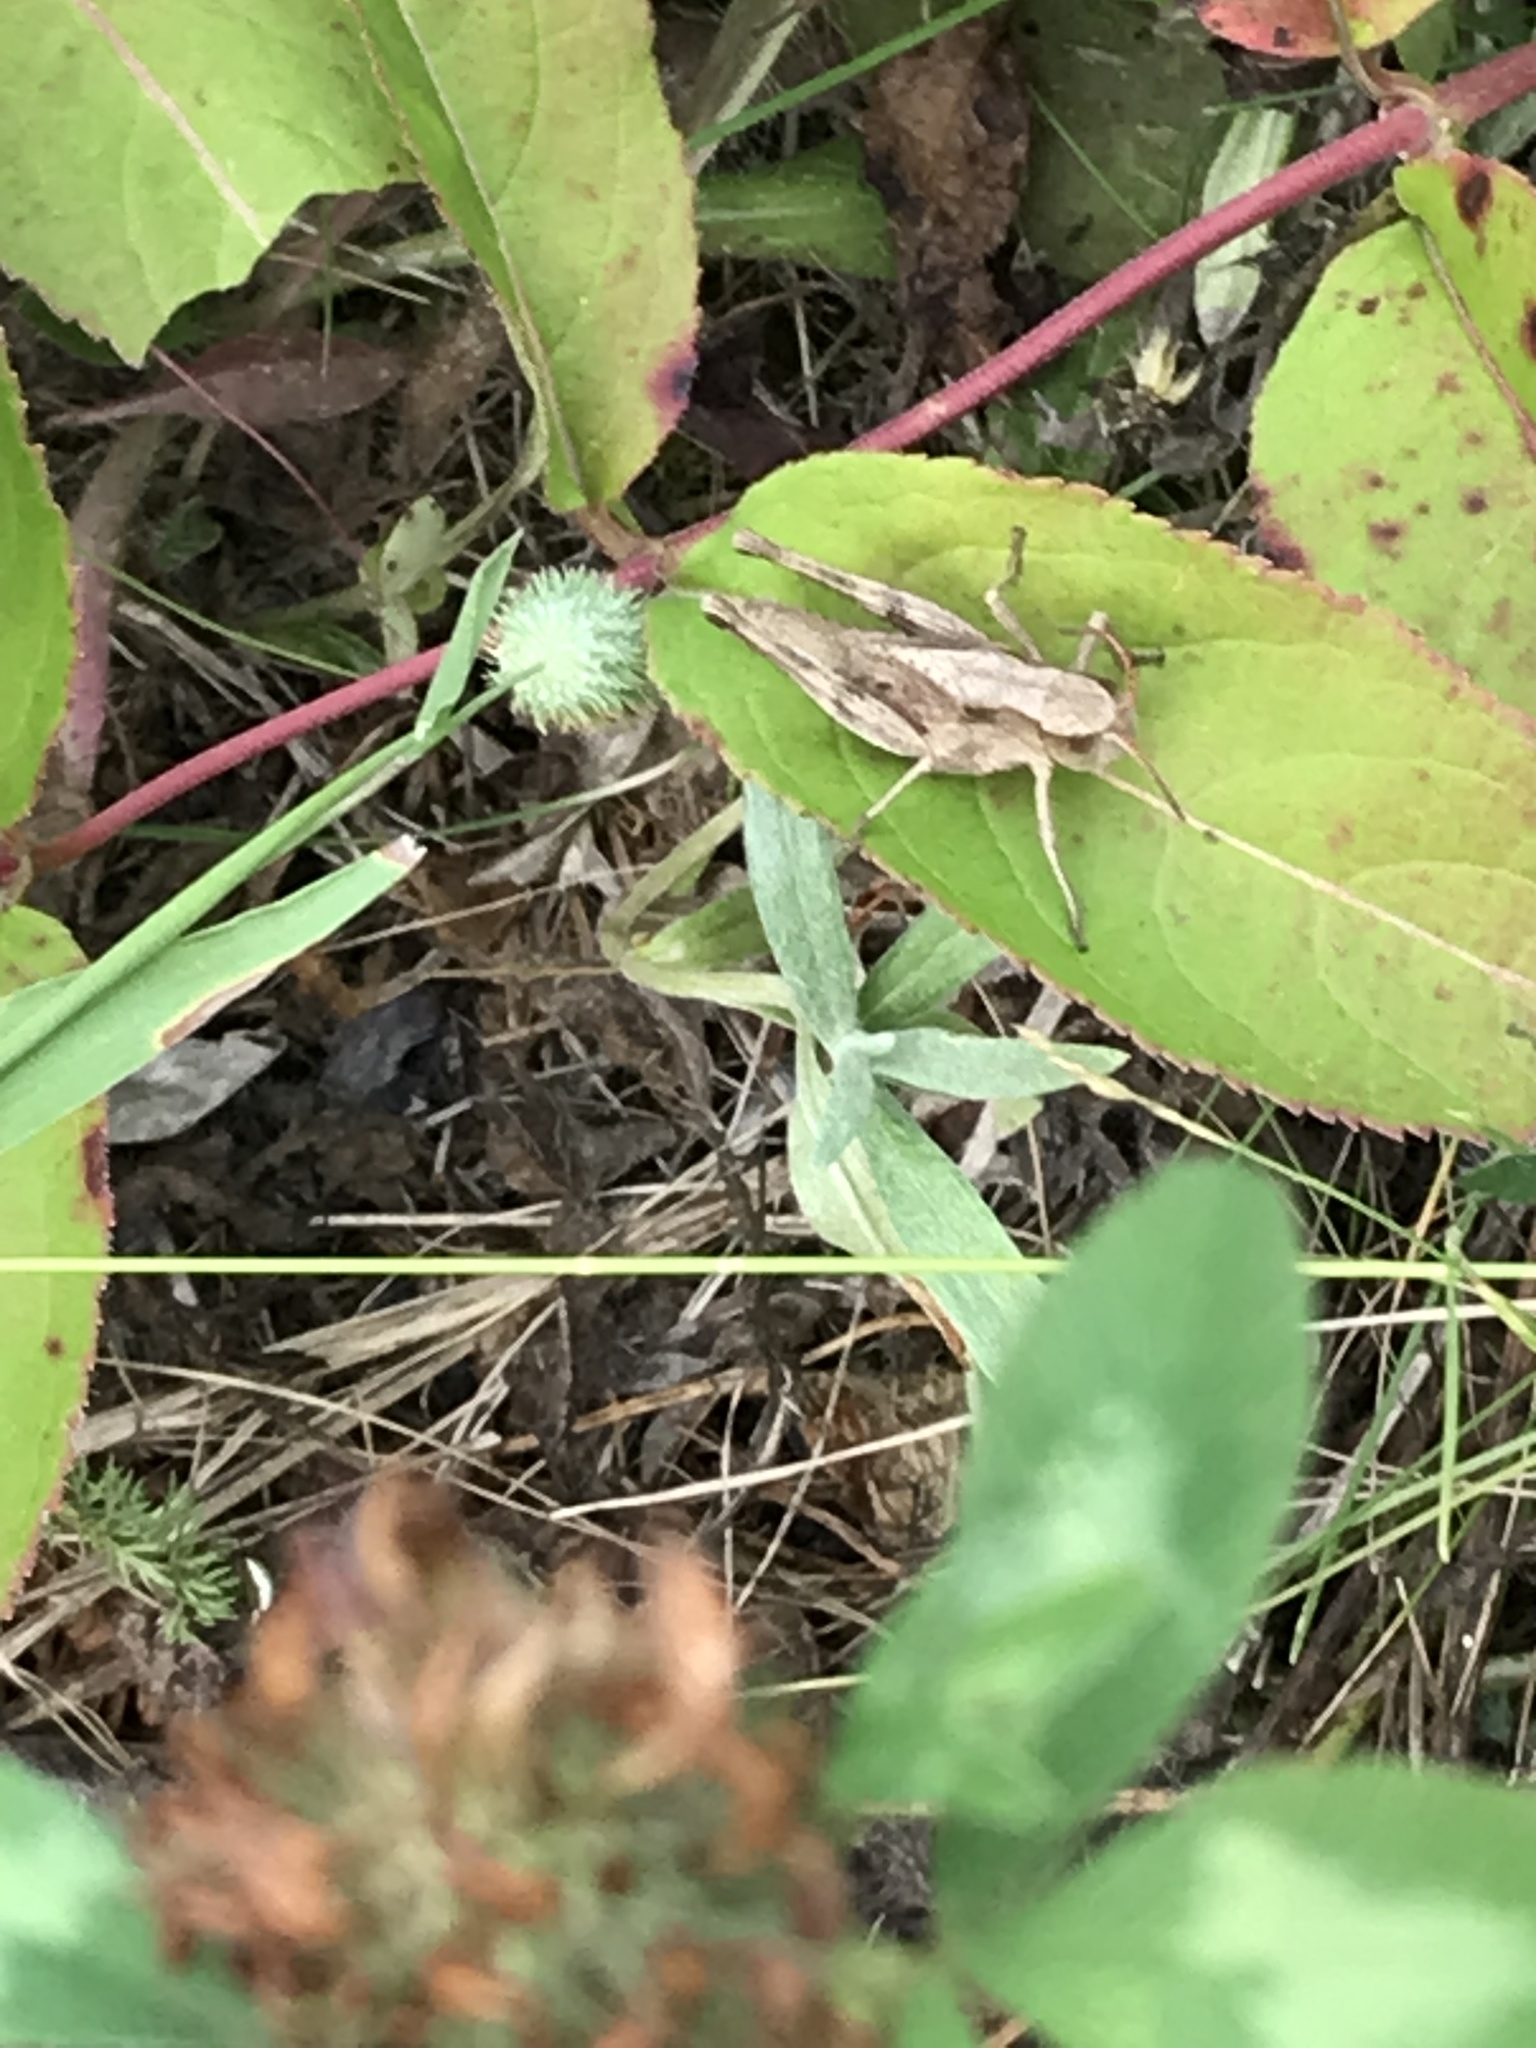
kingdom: Animalia
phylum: Arthropoda
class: Insecta
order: Orthoptera
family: Acrididae
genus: Chloealtis
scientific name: Chloealtis abdominalis
